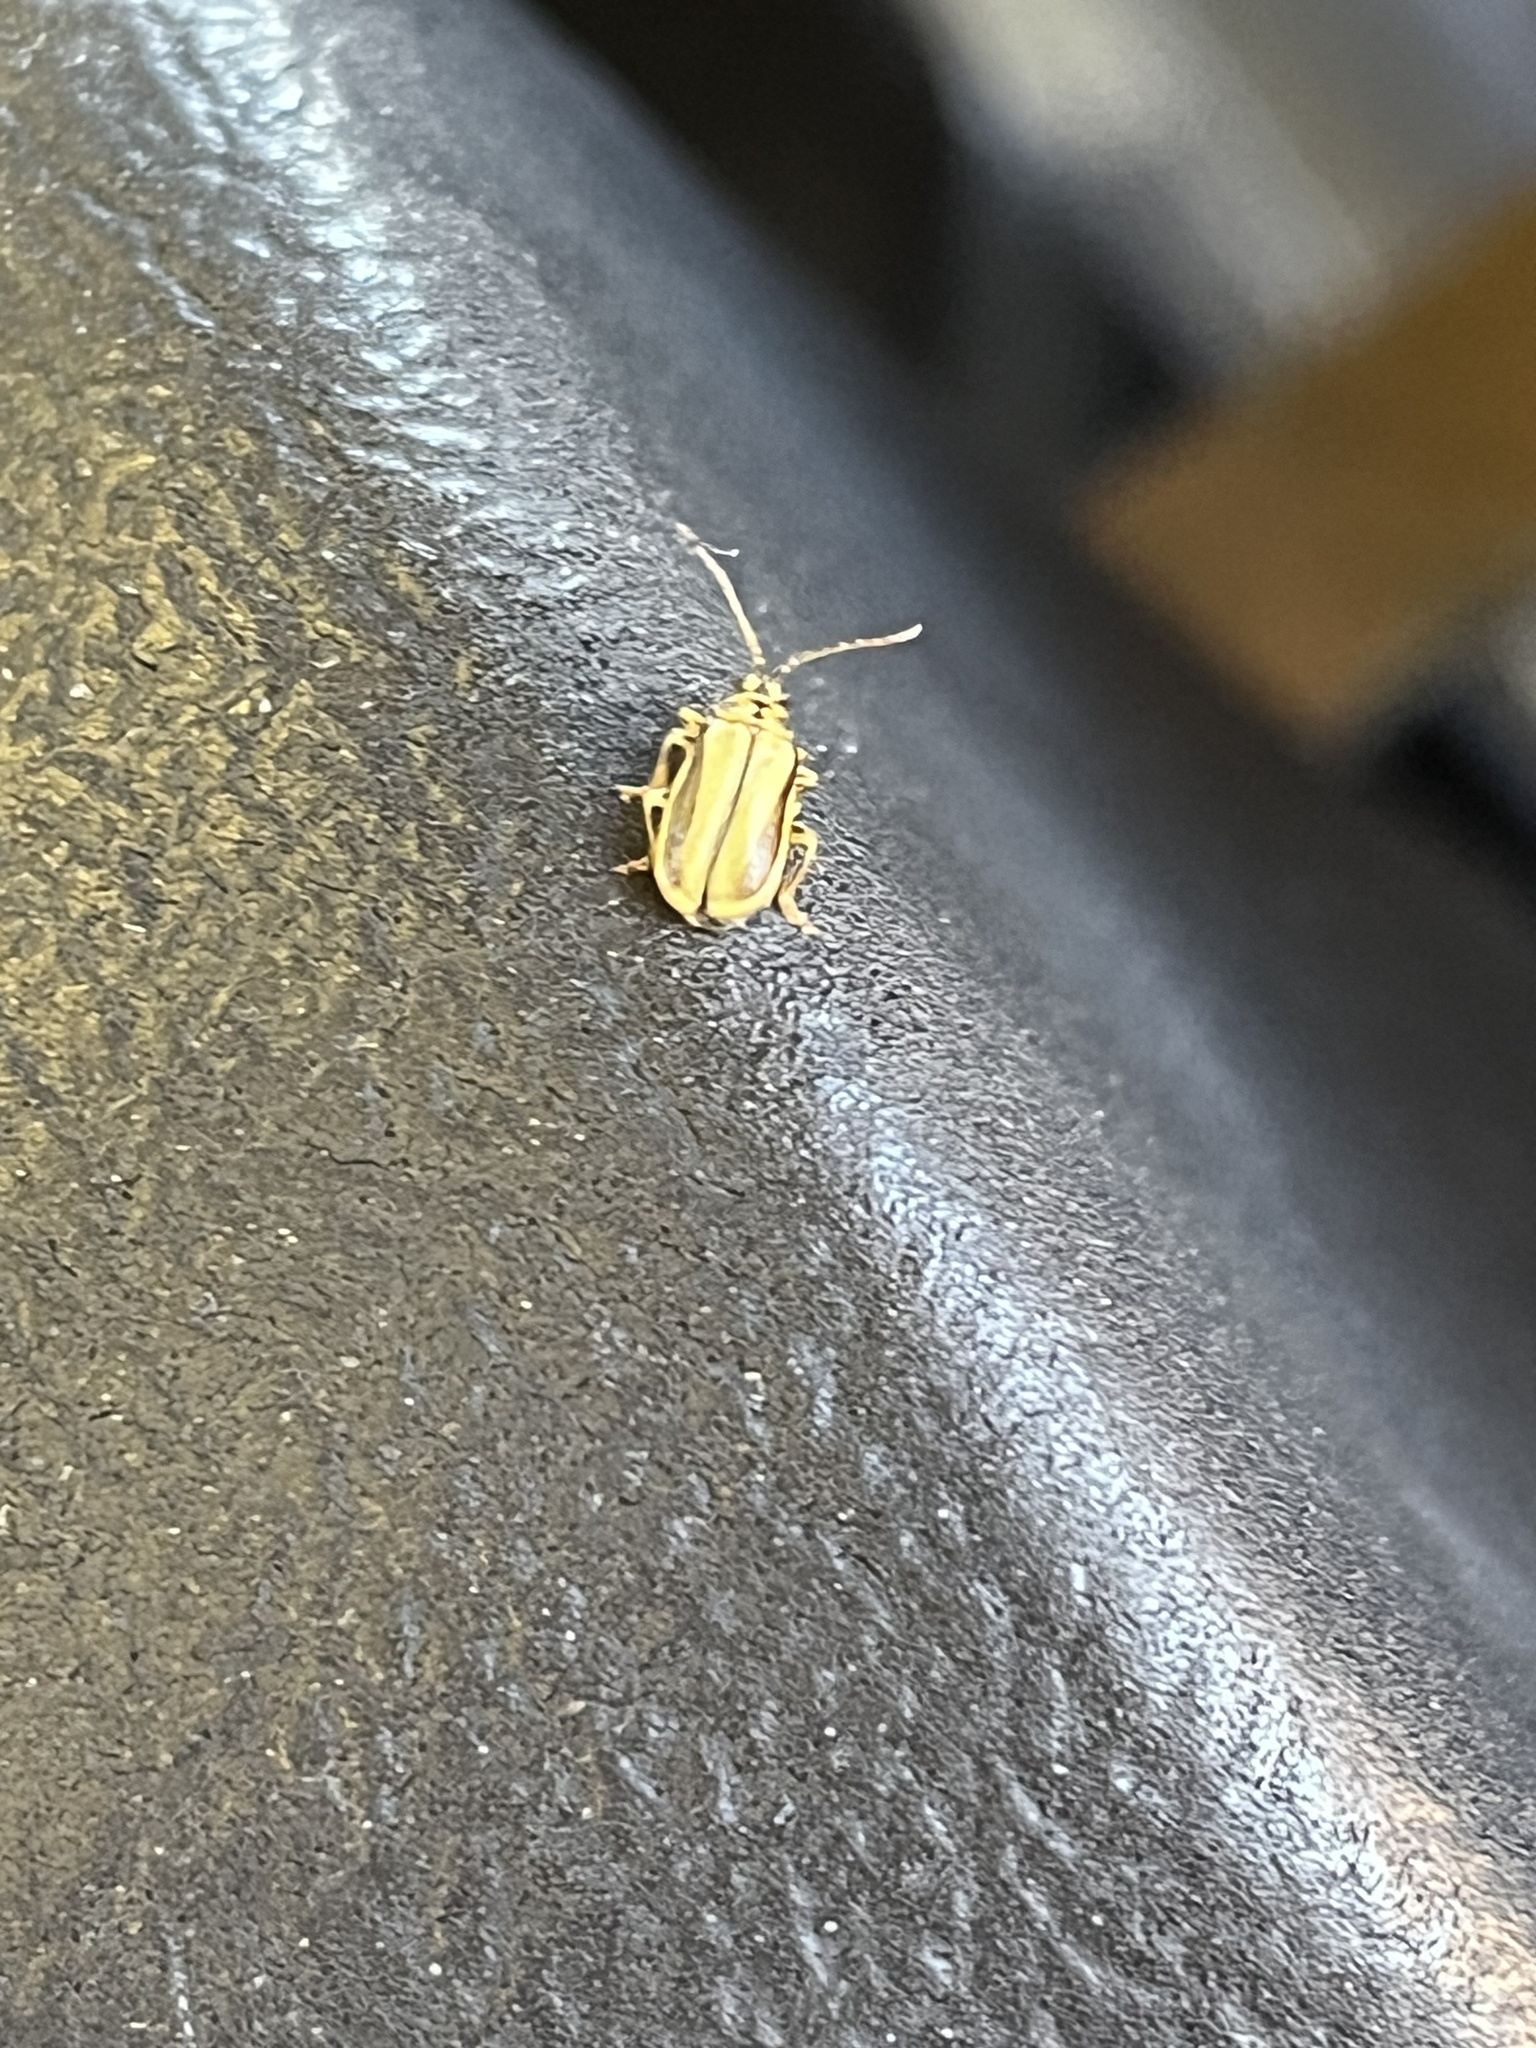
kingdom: Animalia
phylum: Arthropoda
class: Insecta
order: Coleoptera
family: Chrysomelidae
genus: Xanthogaleruca
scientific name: Xanthogaleruca luteola
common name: Elm leaf beetle
